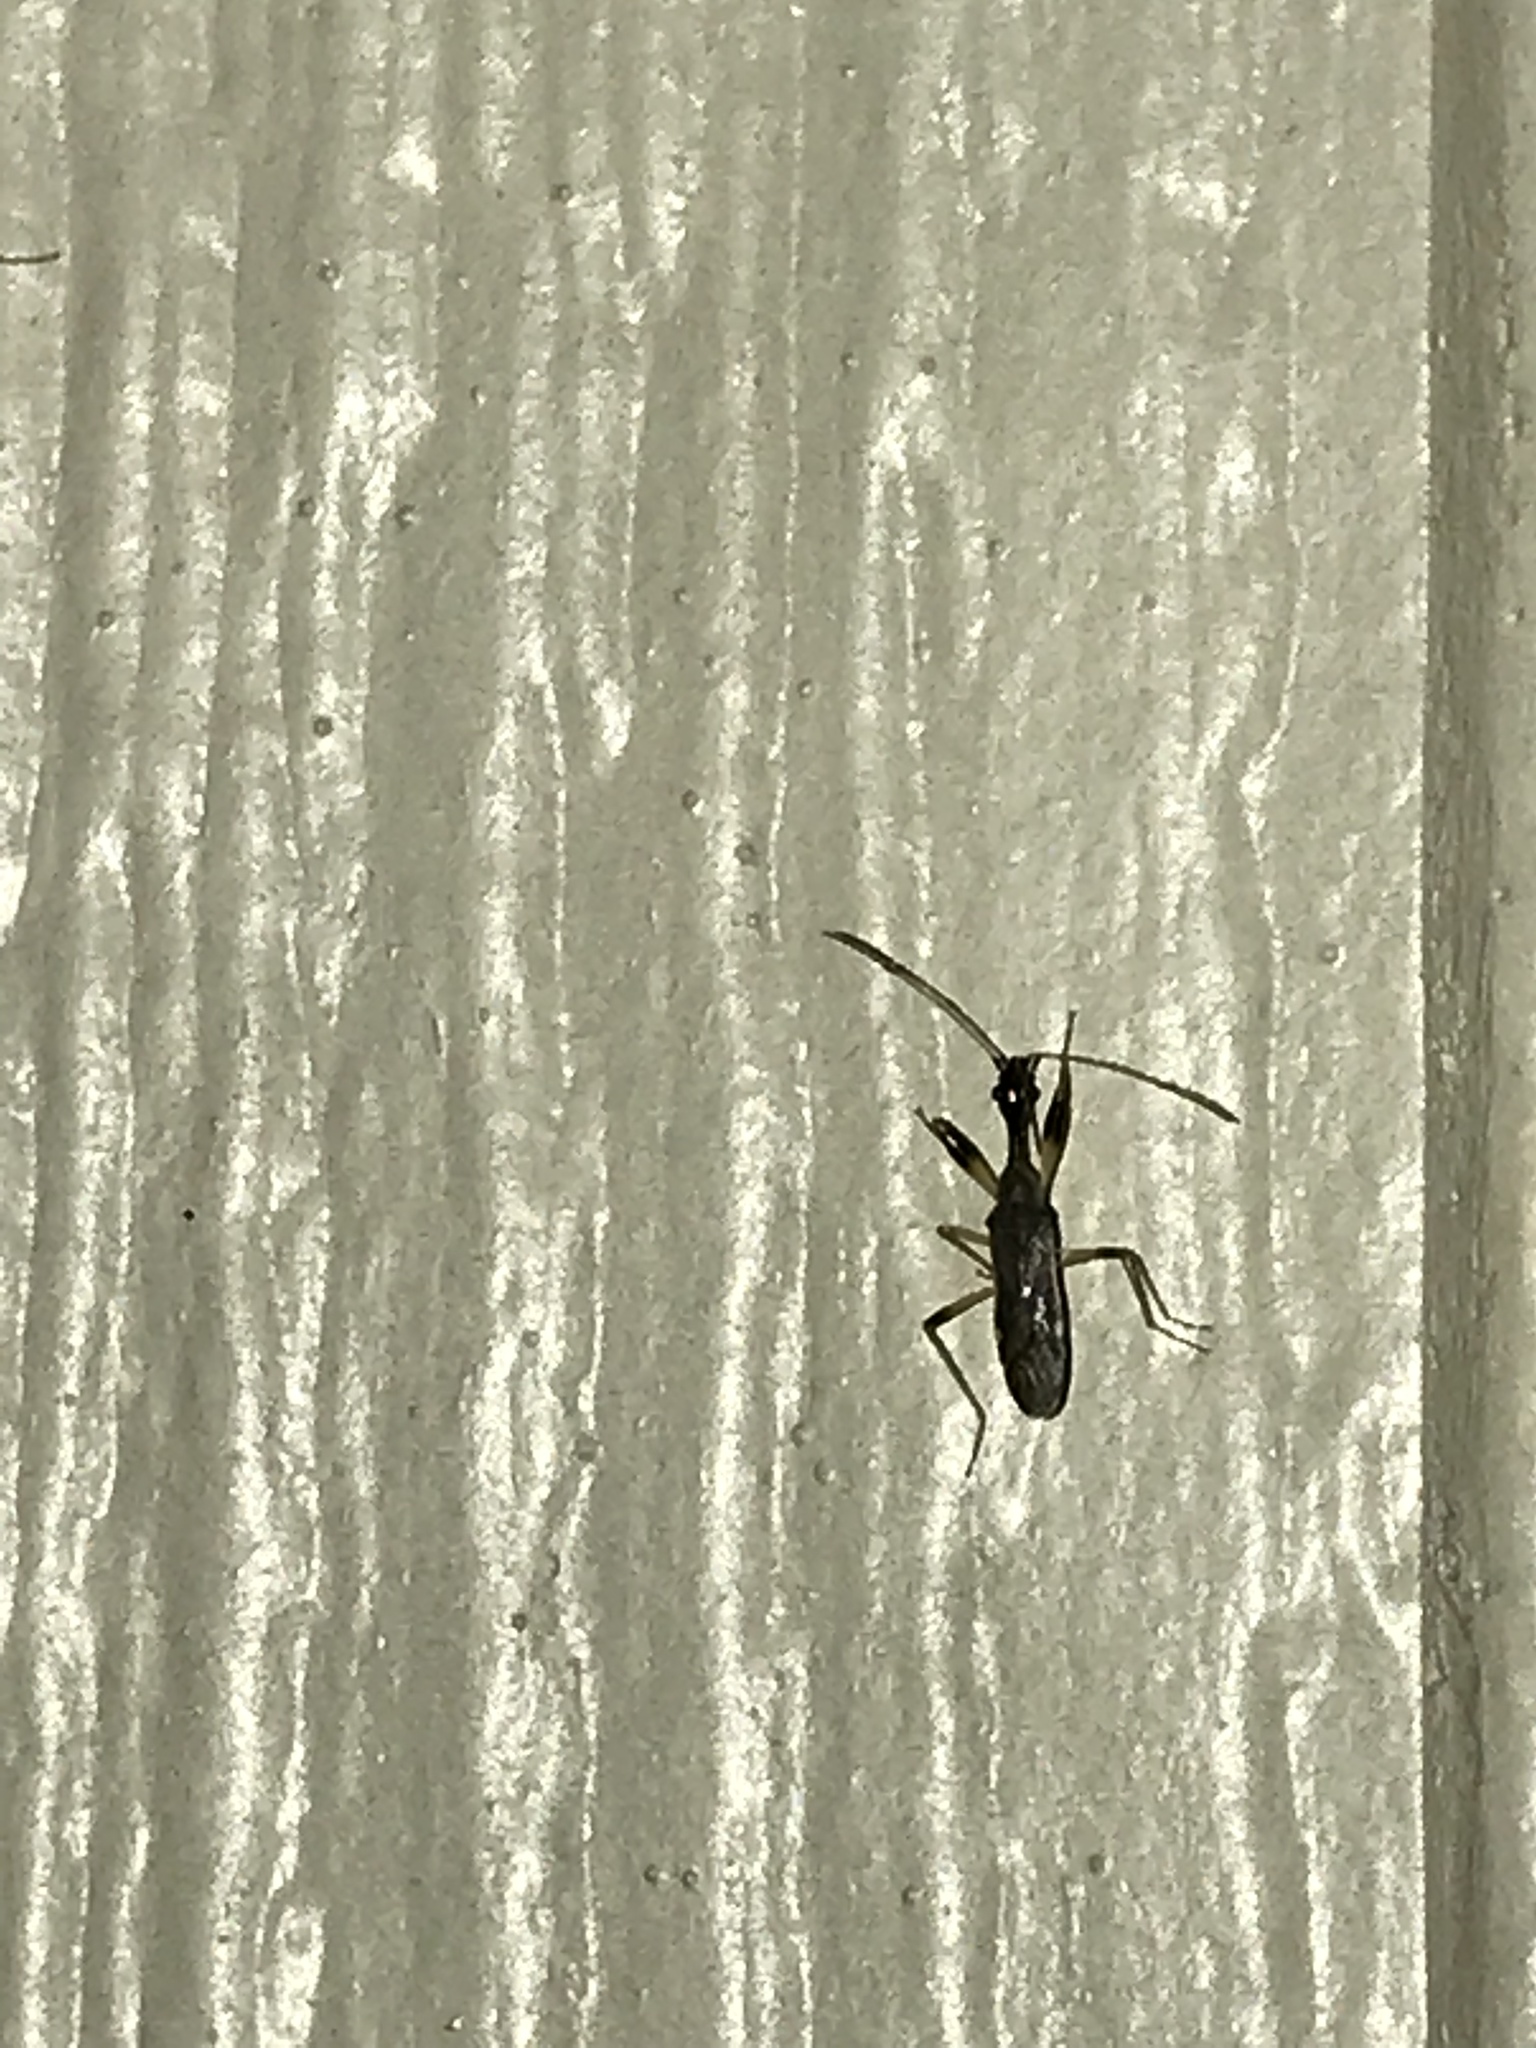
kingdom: Animalia
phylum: Arthropoda
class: Insecta
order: Hemiptera
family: Rhyparochromidae
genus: Myodocha
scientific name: Myodocha serripes
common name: Long-necked seed bug
